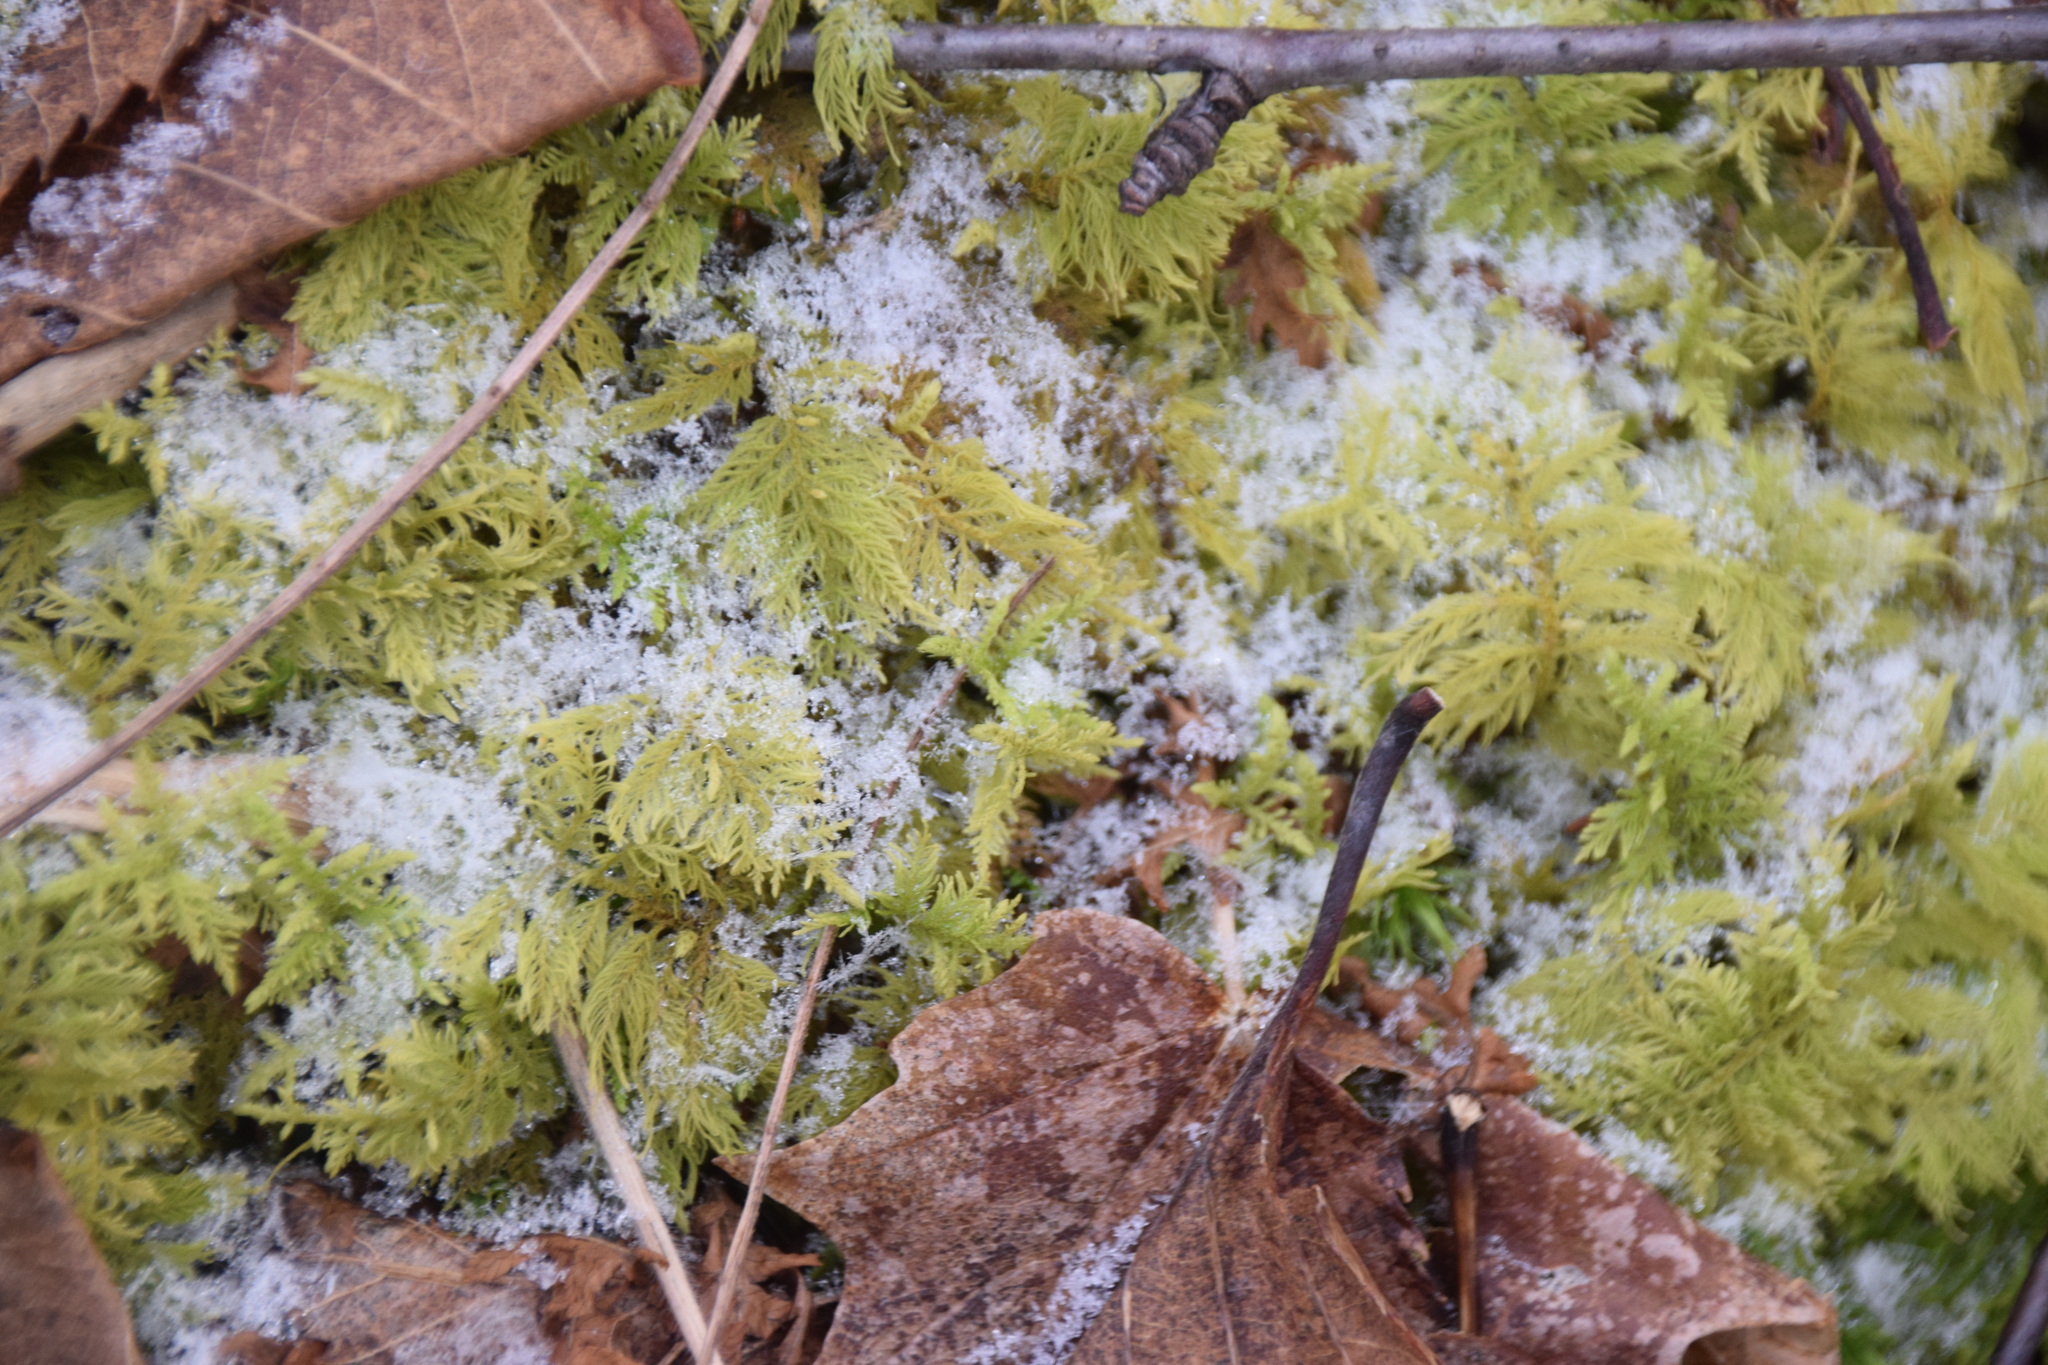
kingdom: Plantae
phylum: Bryophyta
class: Bryopsida
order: Hypnales
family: Hylocomiaceae
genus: Hylocomium
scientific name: Hylocomium splendens
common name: Stairstep moss
